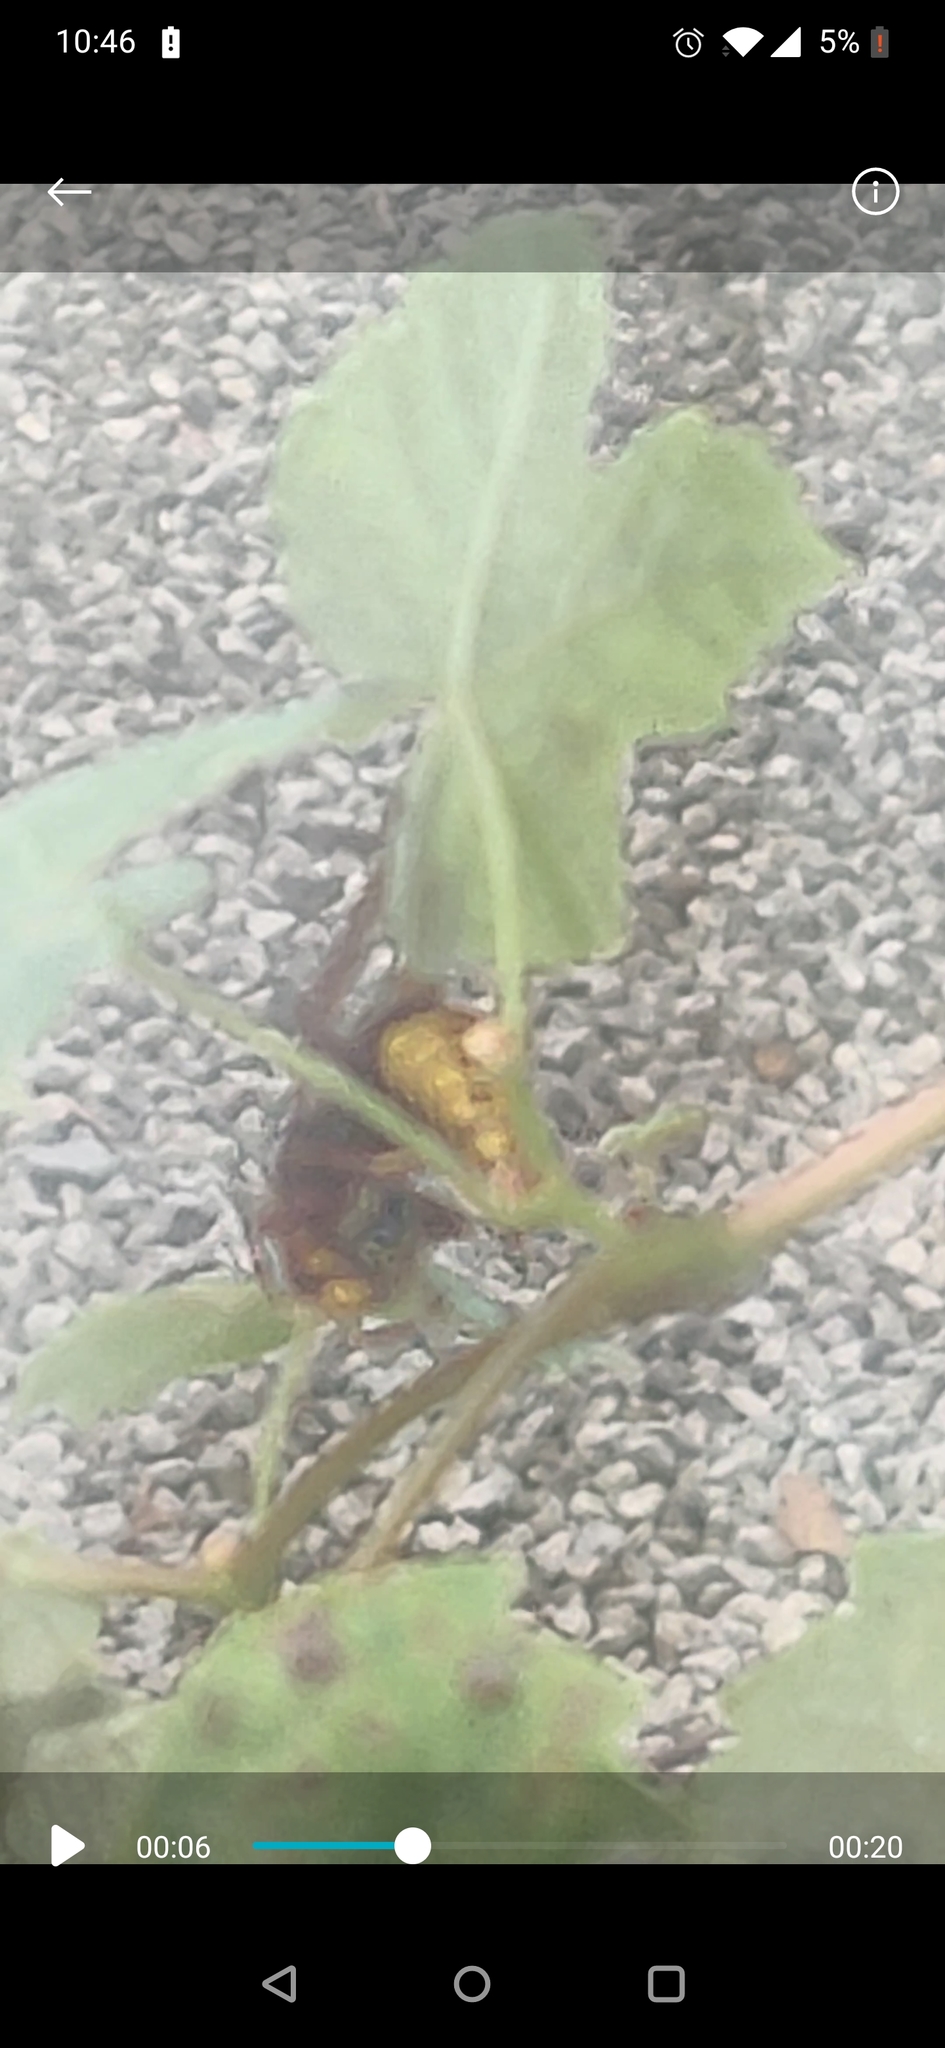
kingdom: Animalia
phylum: Arthropoda
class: Insecta
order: Hymenoptera
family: Vespidae
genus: Vespa
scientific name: Vespa crabro
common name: Hornet
